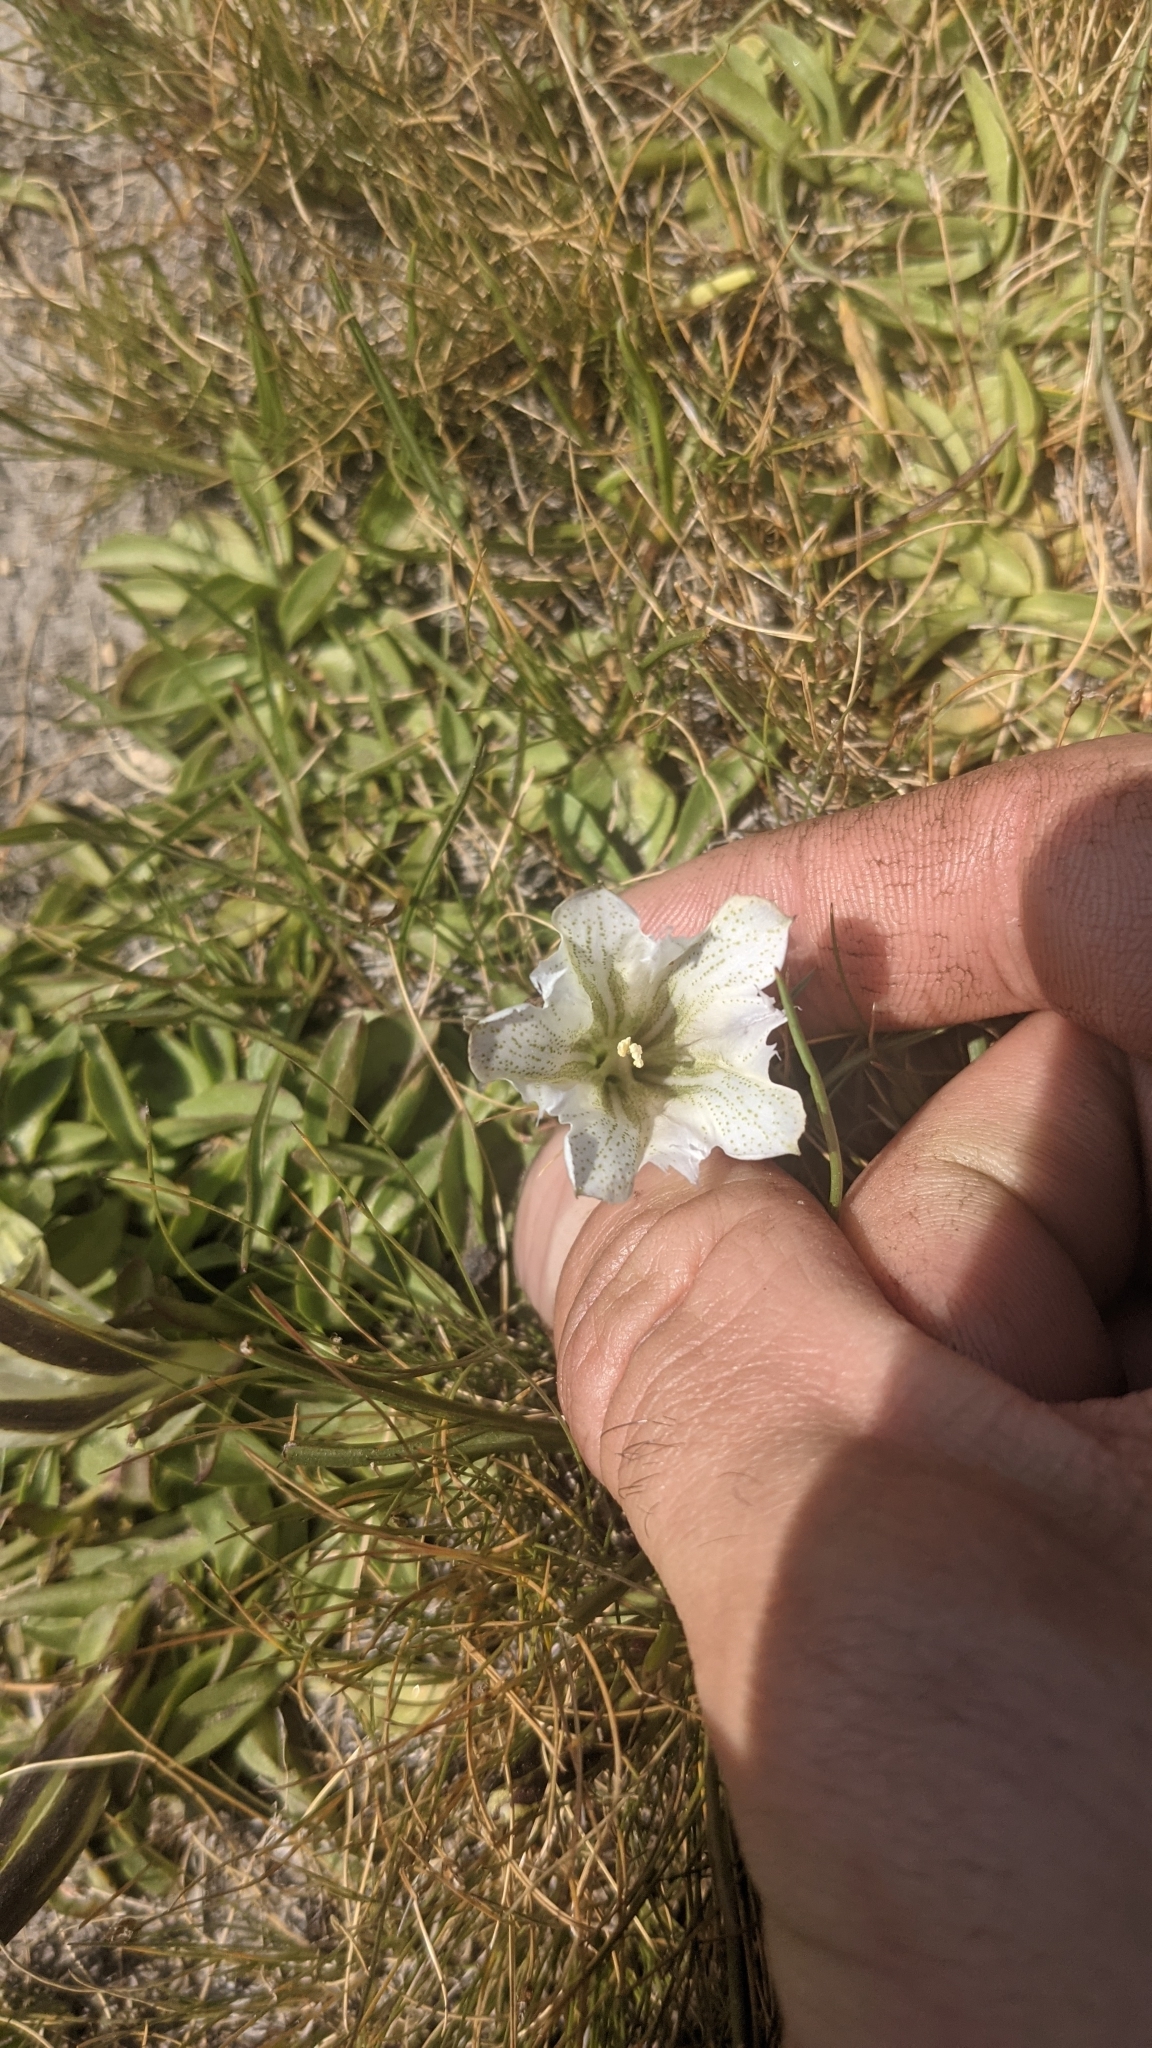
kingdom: Plantae
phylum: Tracheophyta
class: Magnoliopsida
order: Gentianales
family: Gentianaceae
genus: Gentiana
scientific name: Gentiana newberryi
